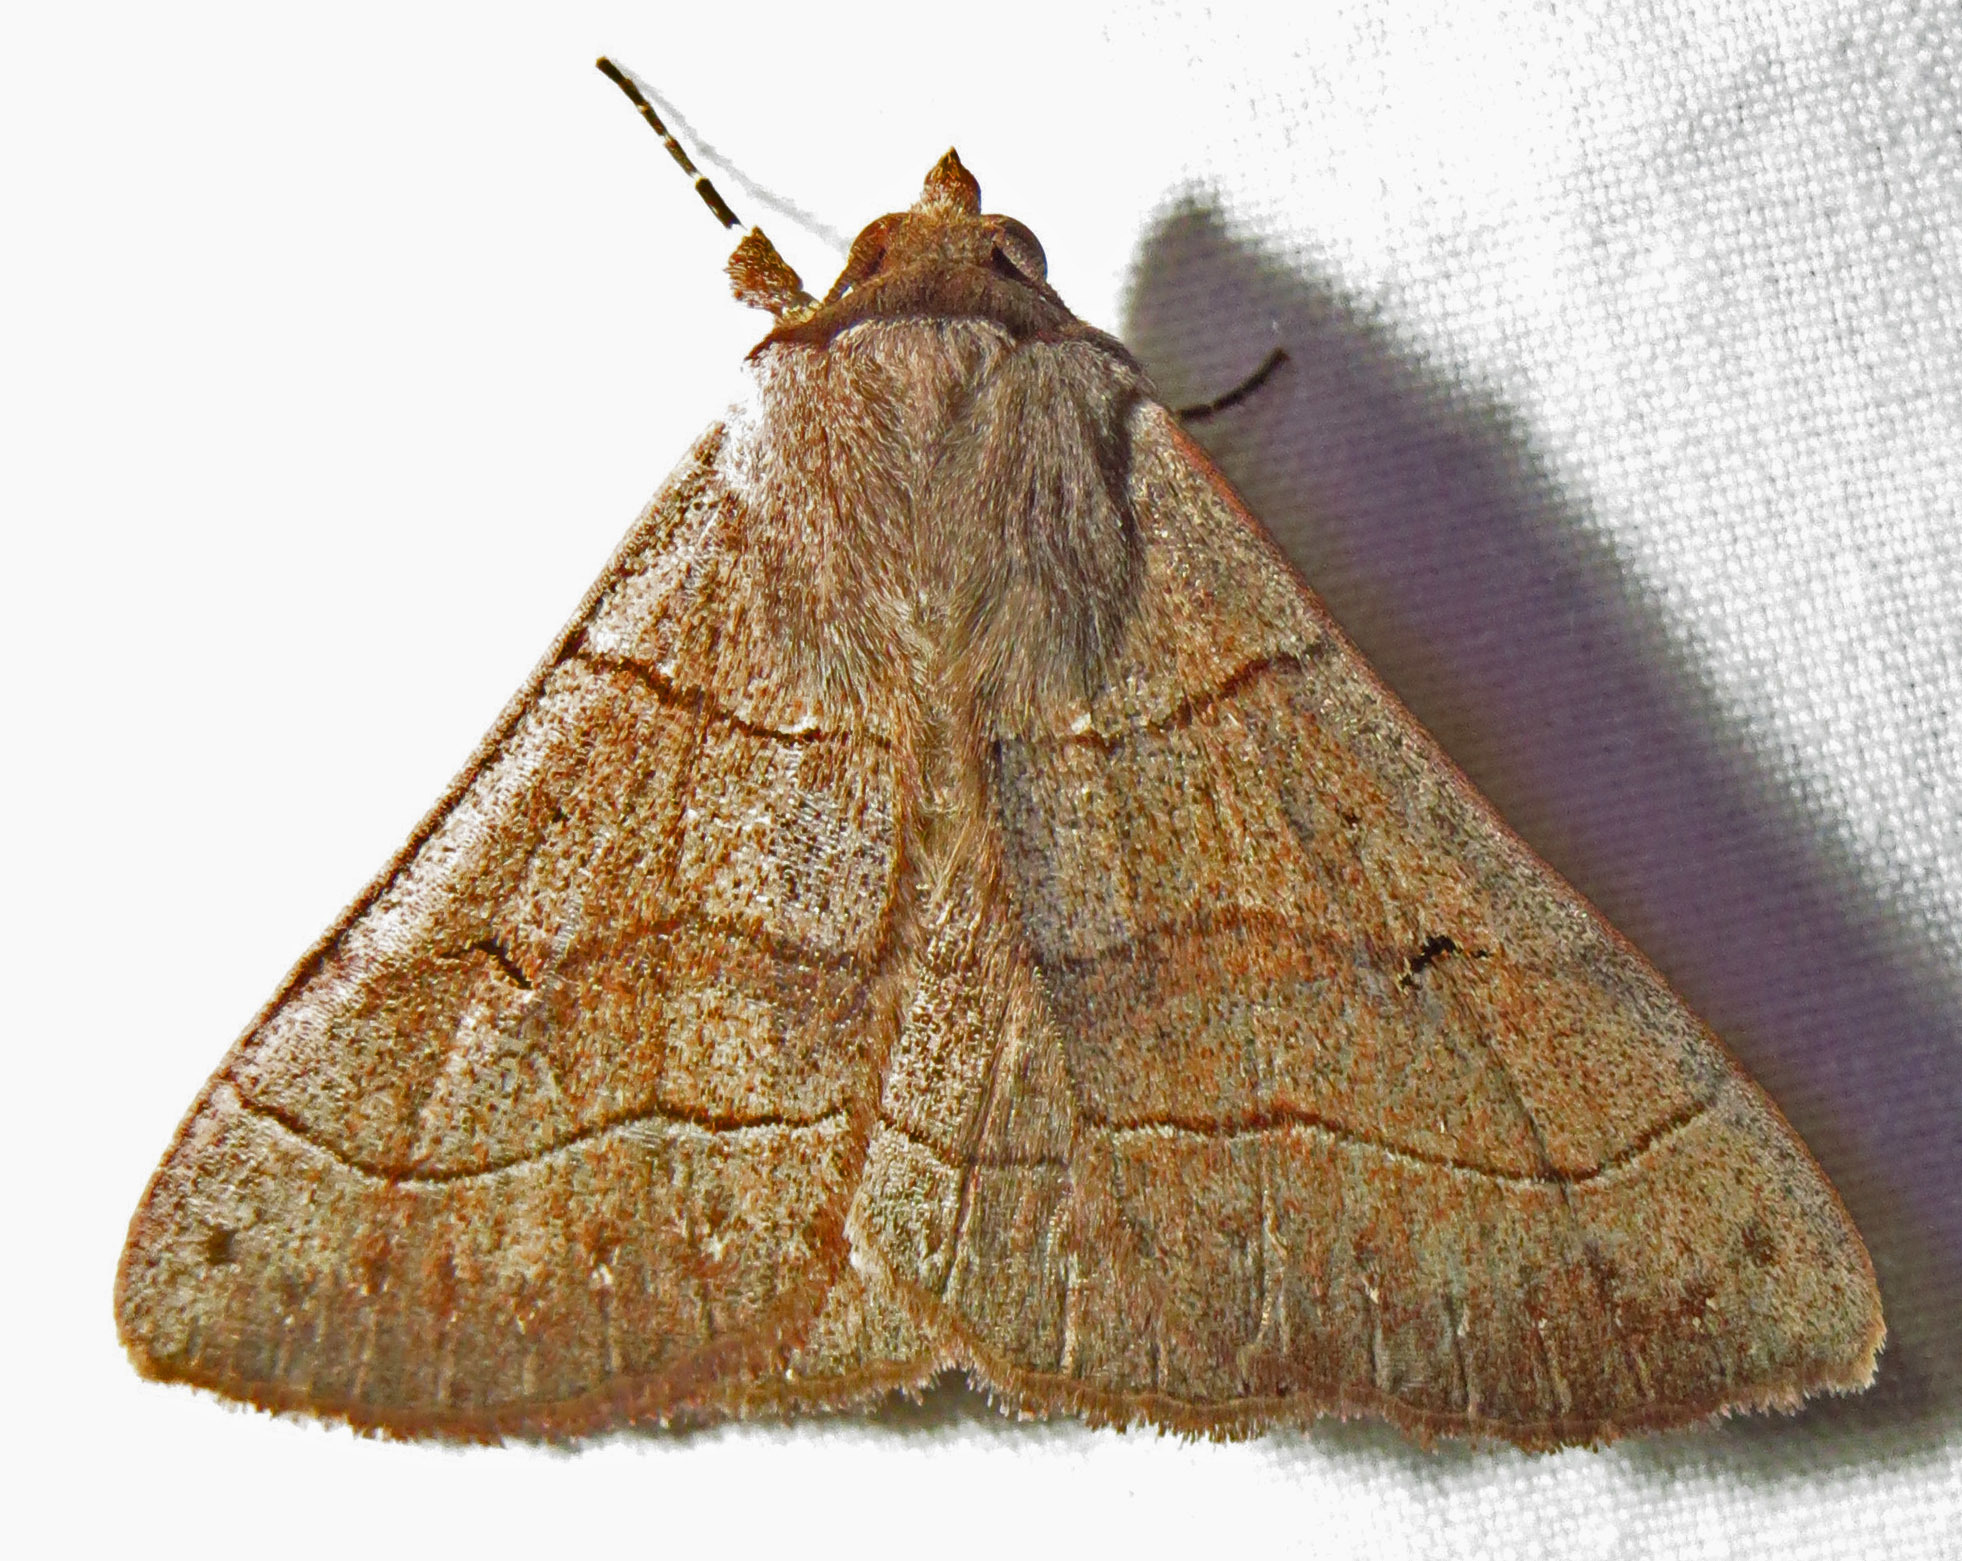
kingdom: Animalia
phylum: Arthropoda
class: Insecta
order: Lepidoptera
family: Erebidae
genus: Panopoda
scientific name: Panopoda carneicosta
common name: Brown panopoda moth
